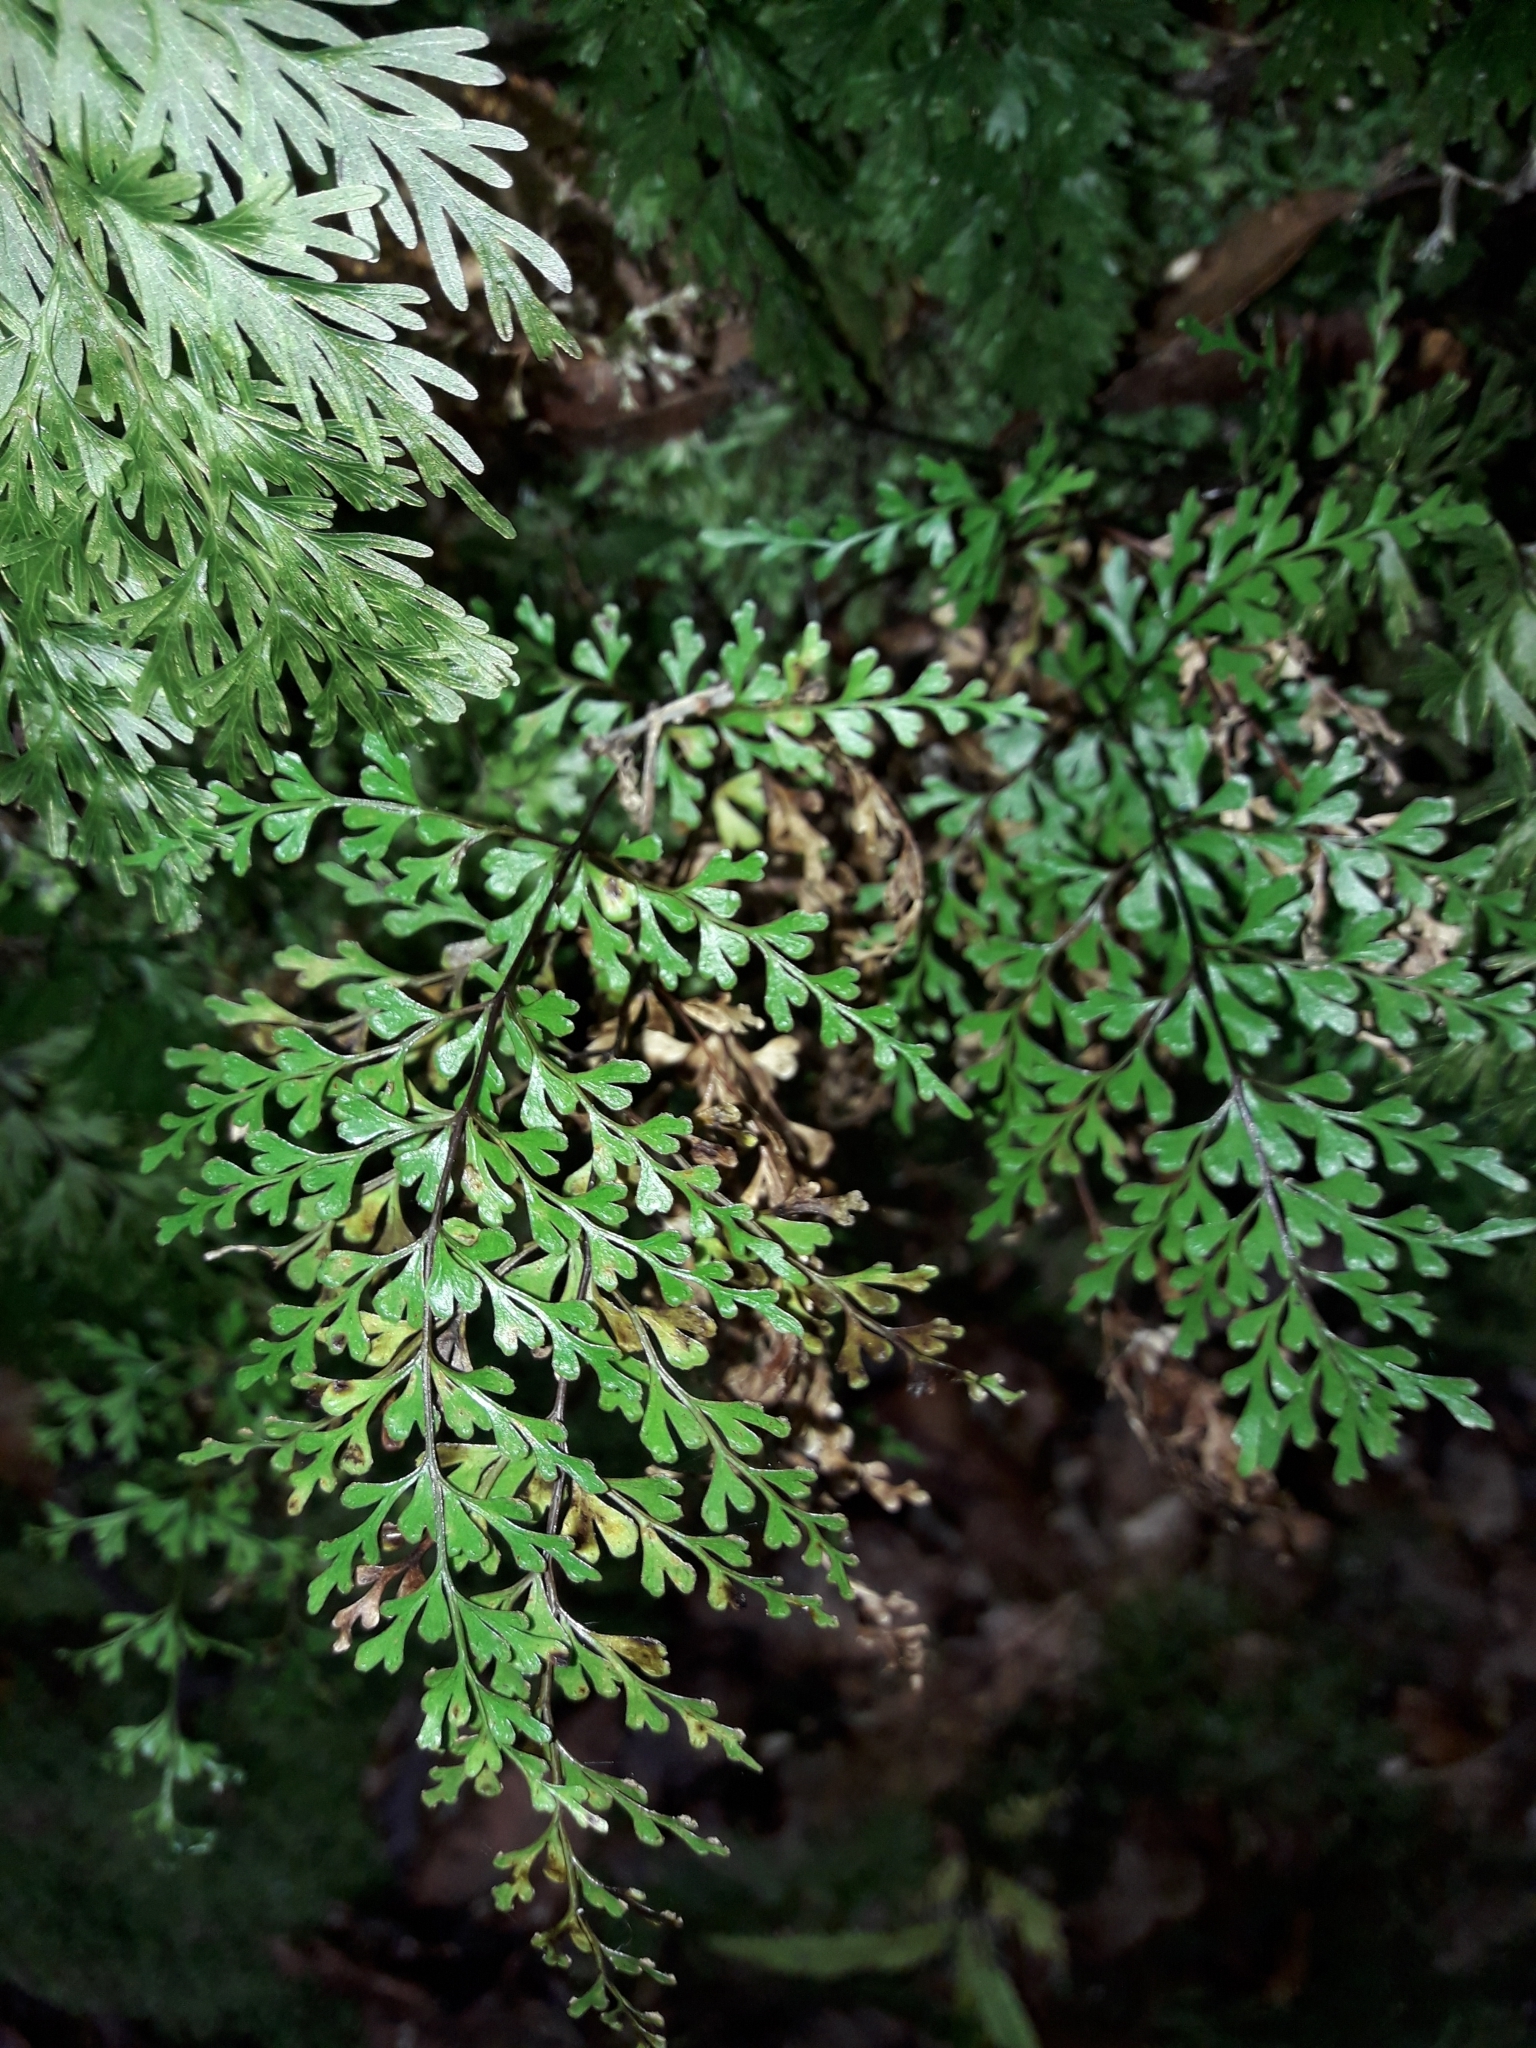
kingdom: Plantae
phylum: Tracheophyta
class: Polypodiopsida
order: Polypodiales
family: Lindsaeaceae
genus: Lindsaea
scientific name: Lindsaea trichomanoides
